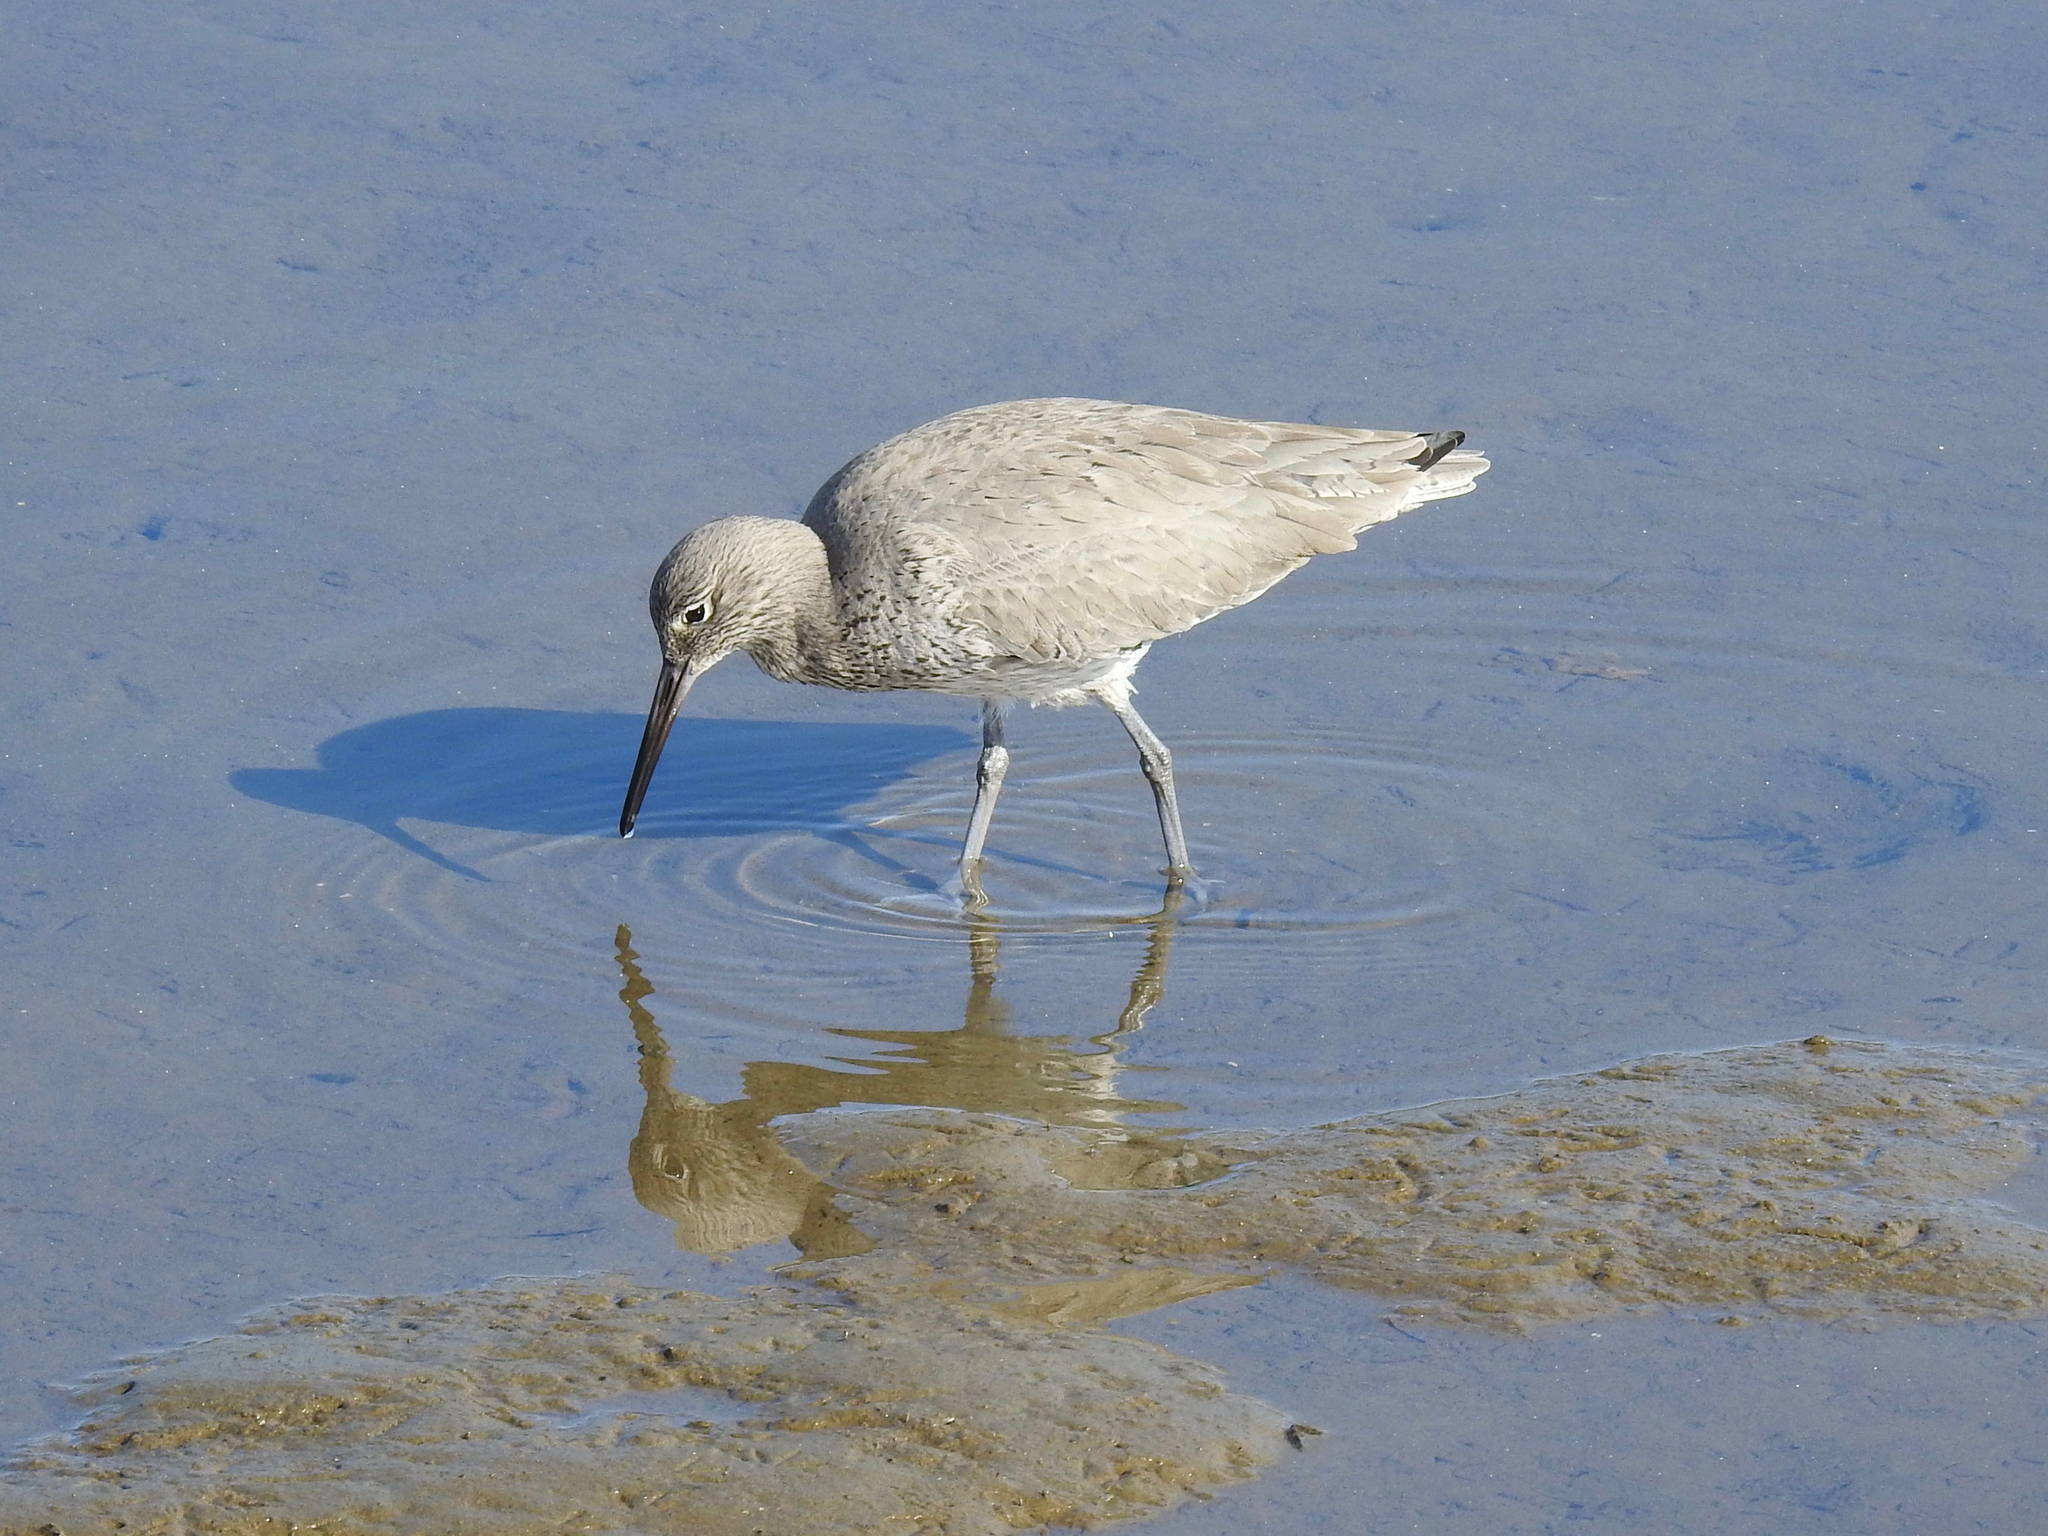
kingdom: Animalia
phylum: Chordata
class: Aves
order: Charadriiformes
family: Scolopacidae
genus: Tringa
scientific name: Tringa semipalmata
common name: Willet
